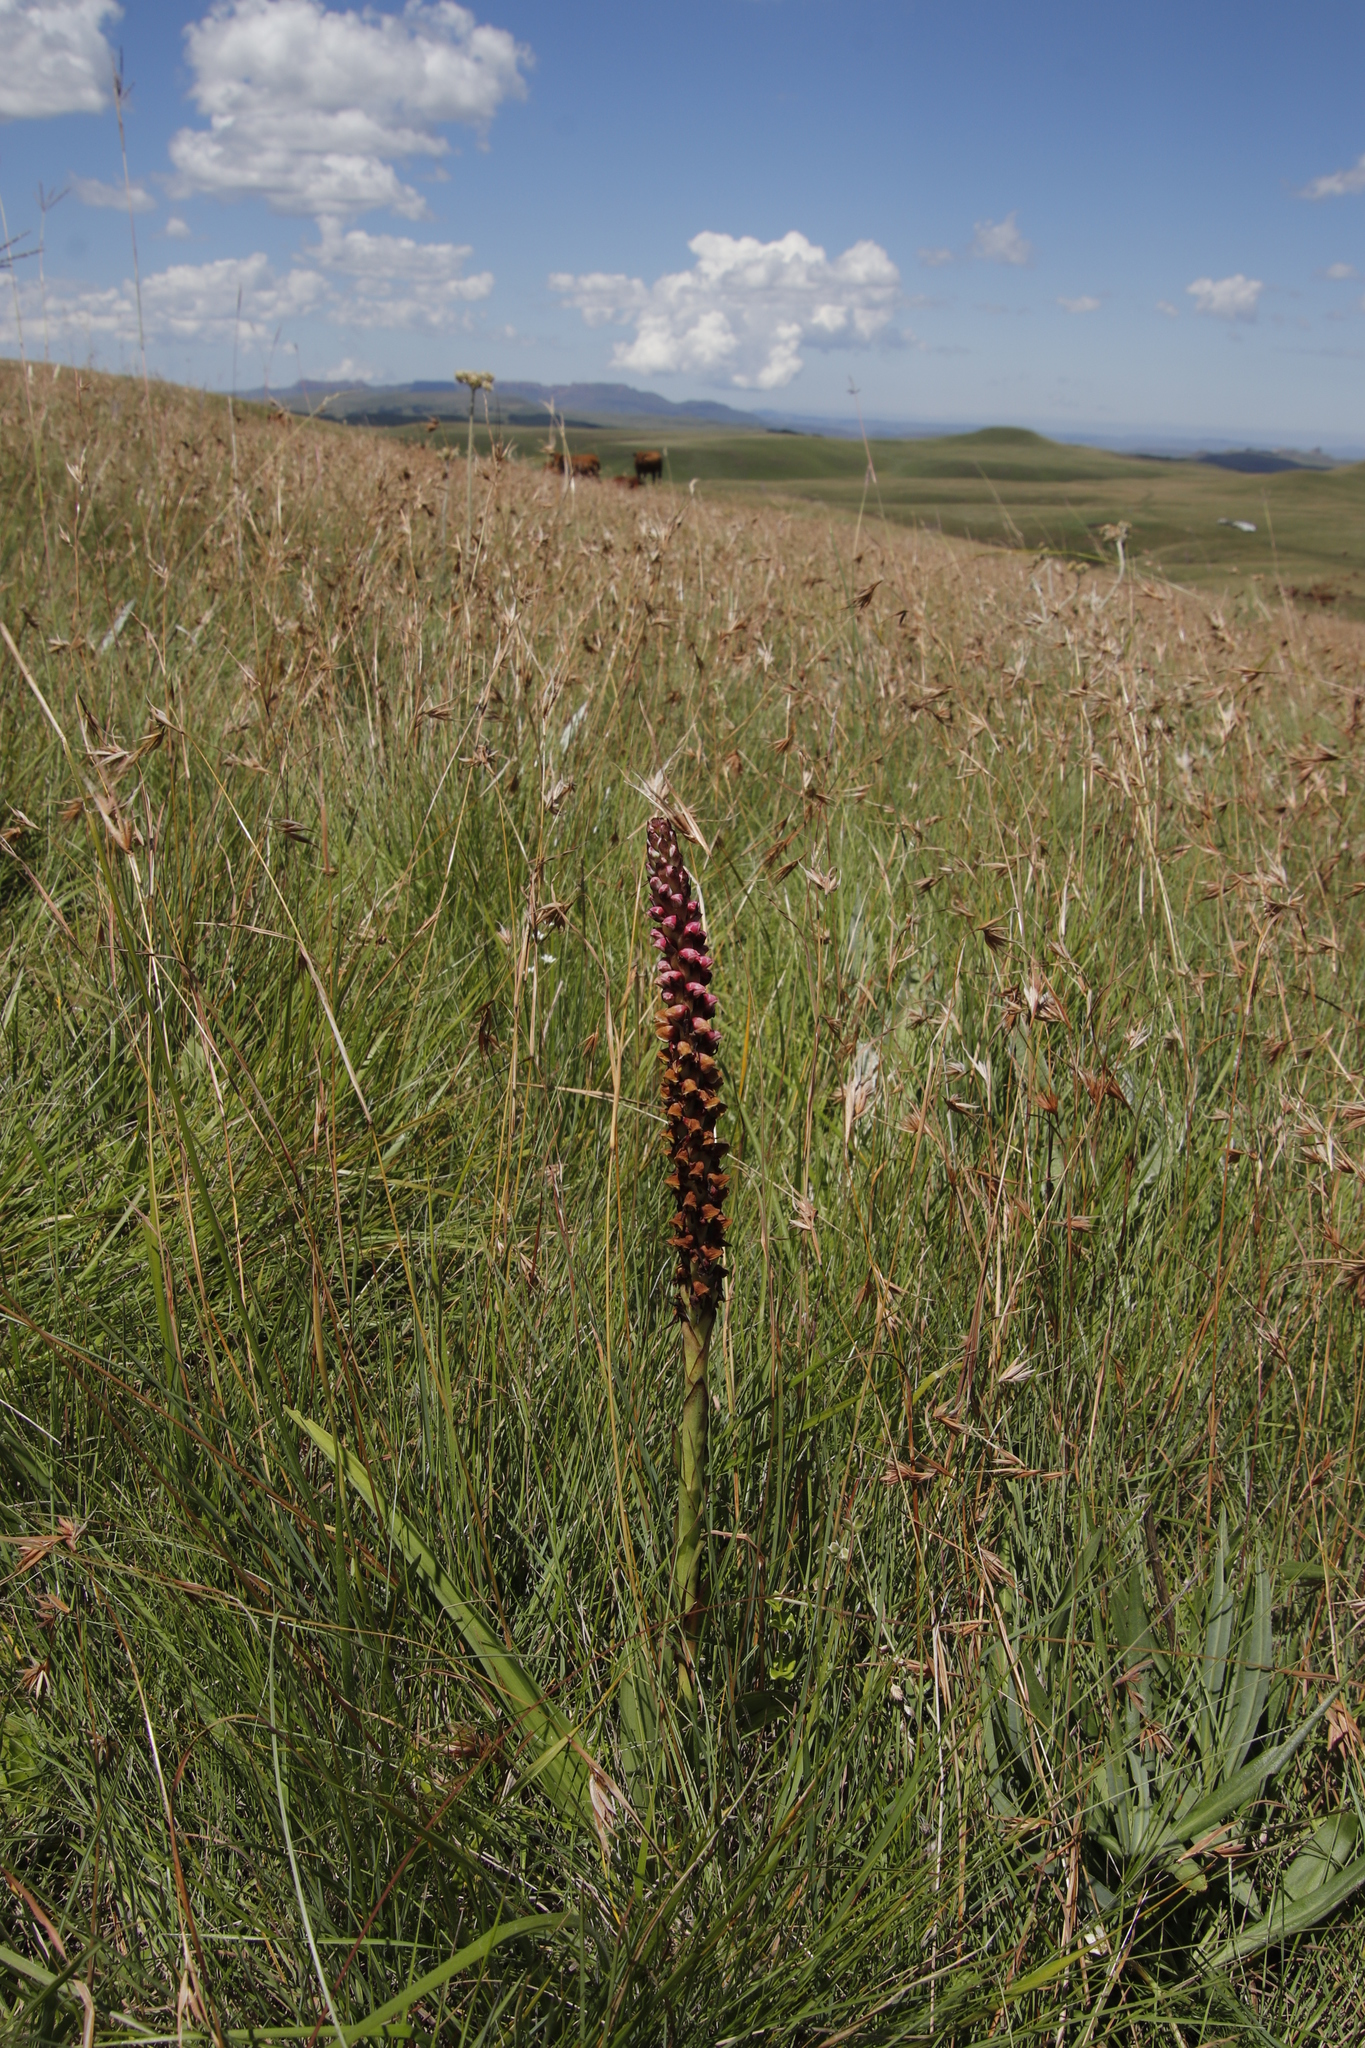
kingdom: Plantae
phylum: Tracheophyta
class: Liliopsida
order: Asparagales
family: Orchidaceae
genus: Disa
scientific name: Disa versicolor
